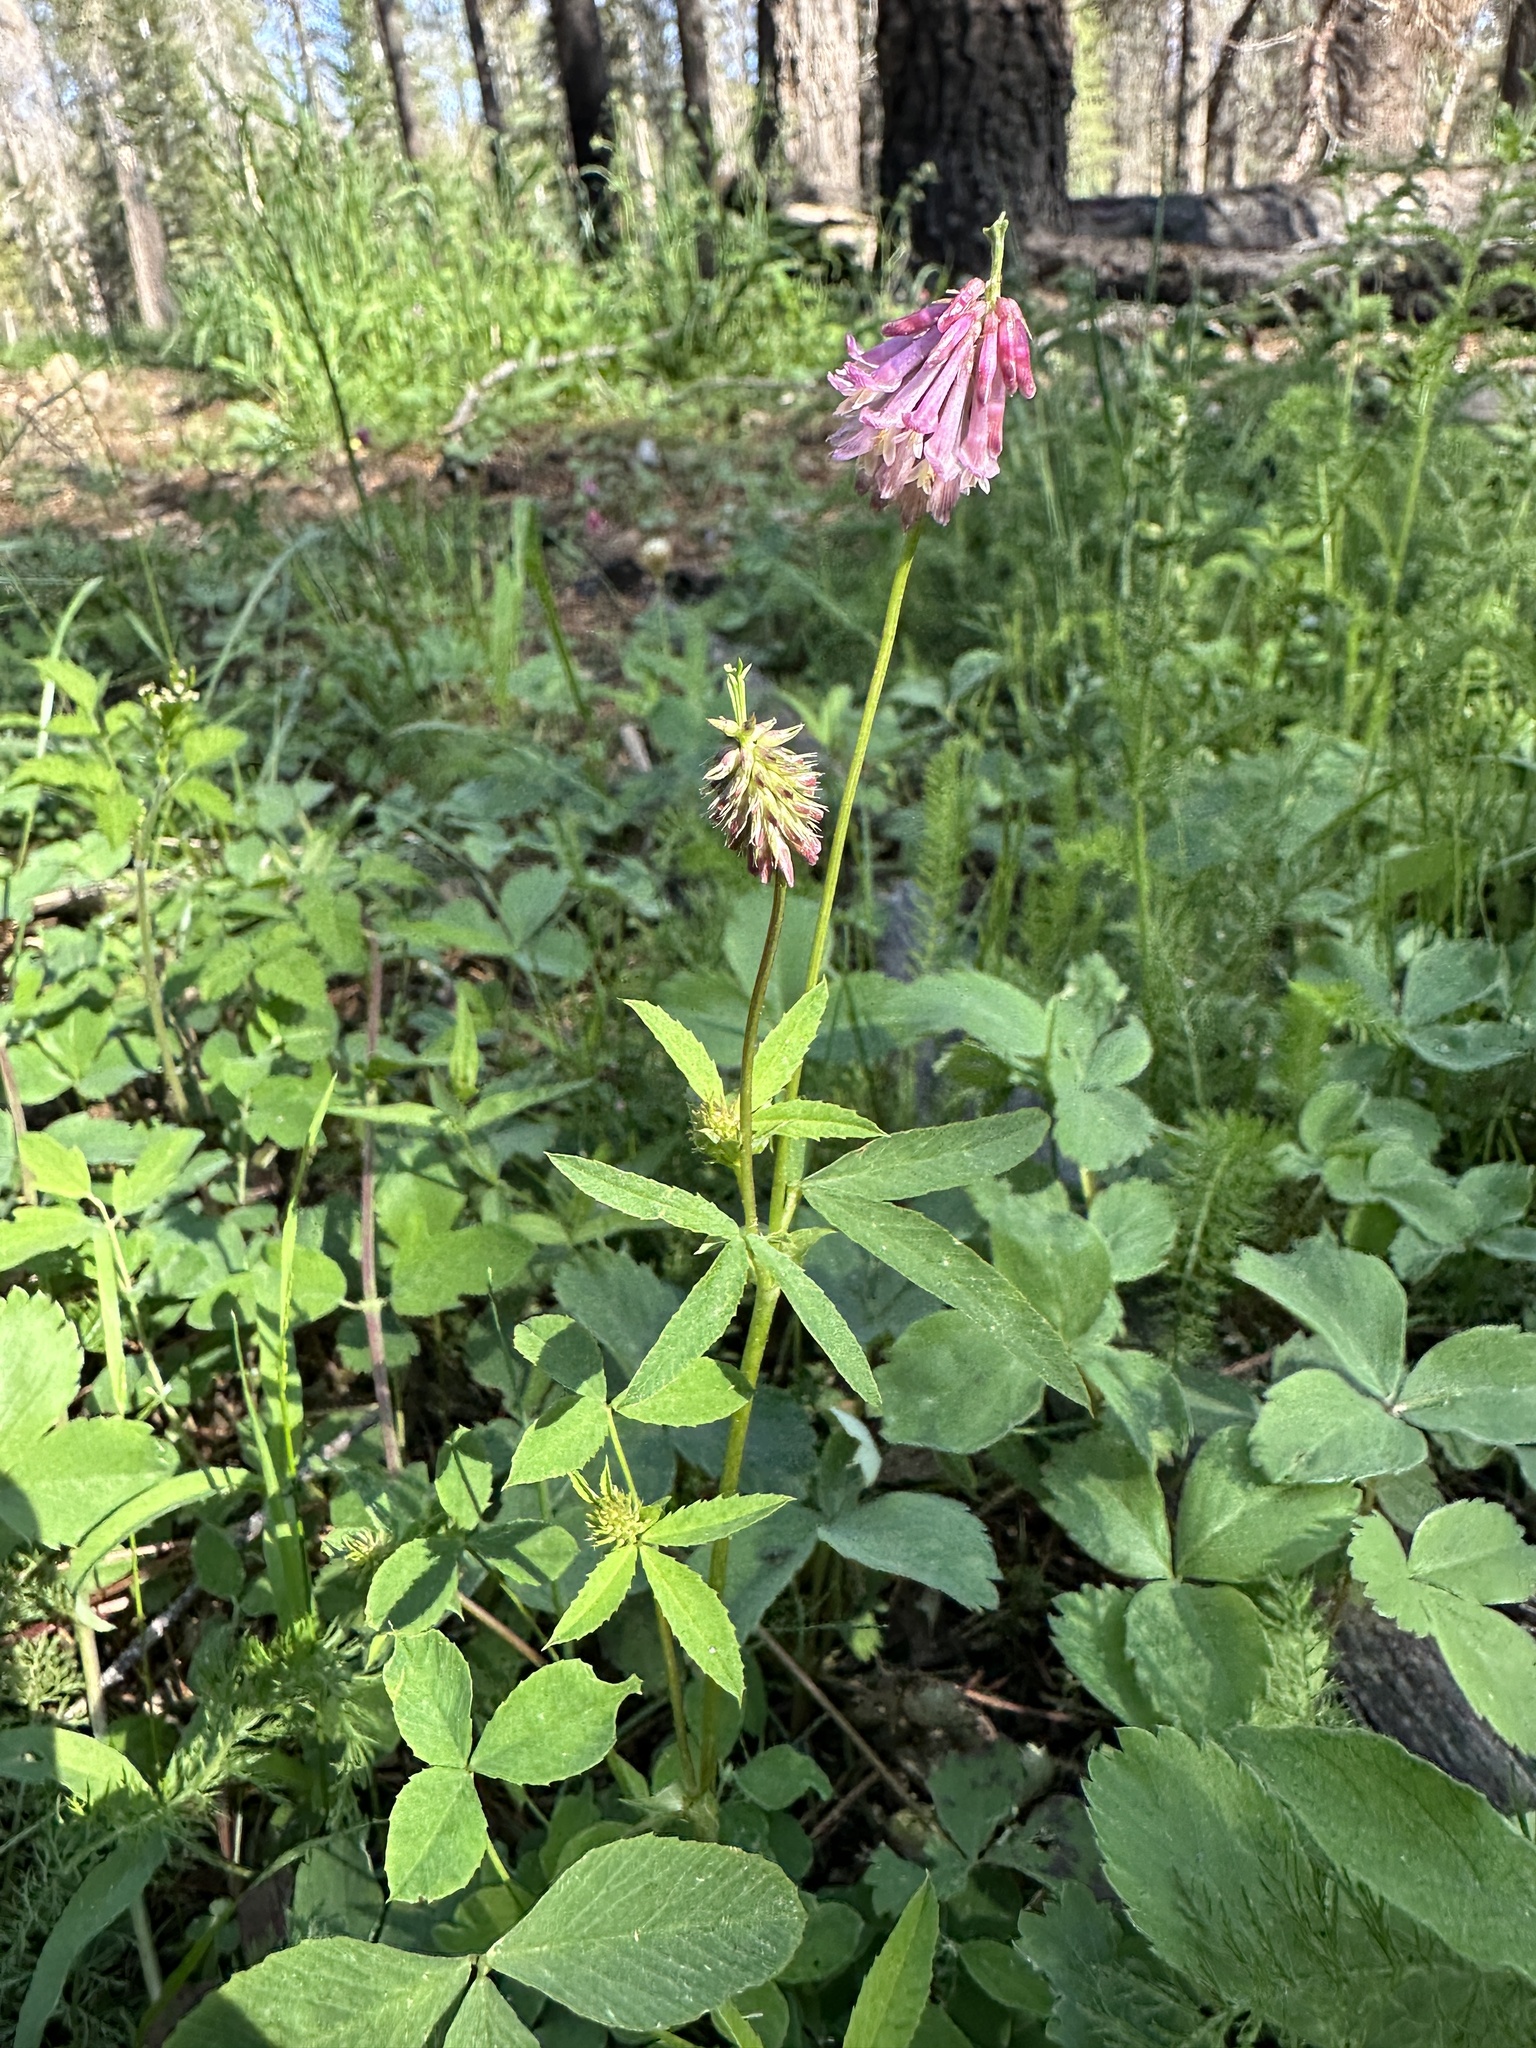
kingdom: Plantae
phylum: Tracheophyta
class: Magnoliopsida
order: Fabales
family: Fabaceae
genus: Trifolium
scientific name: Trifolium productum
